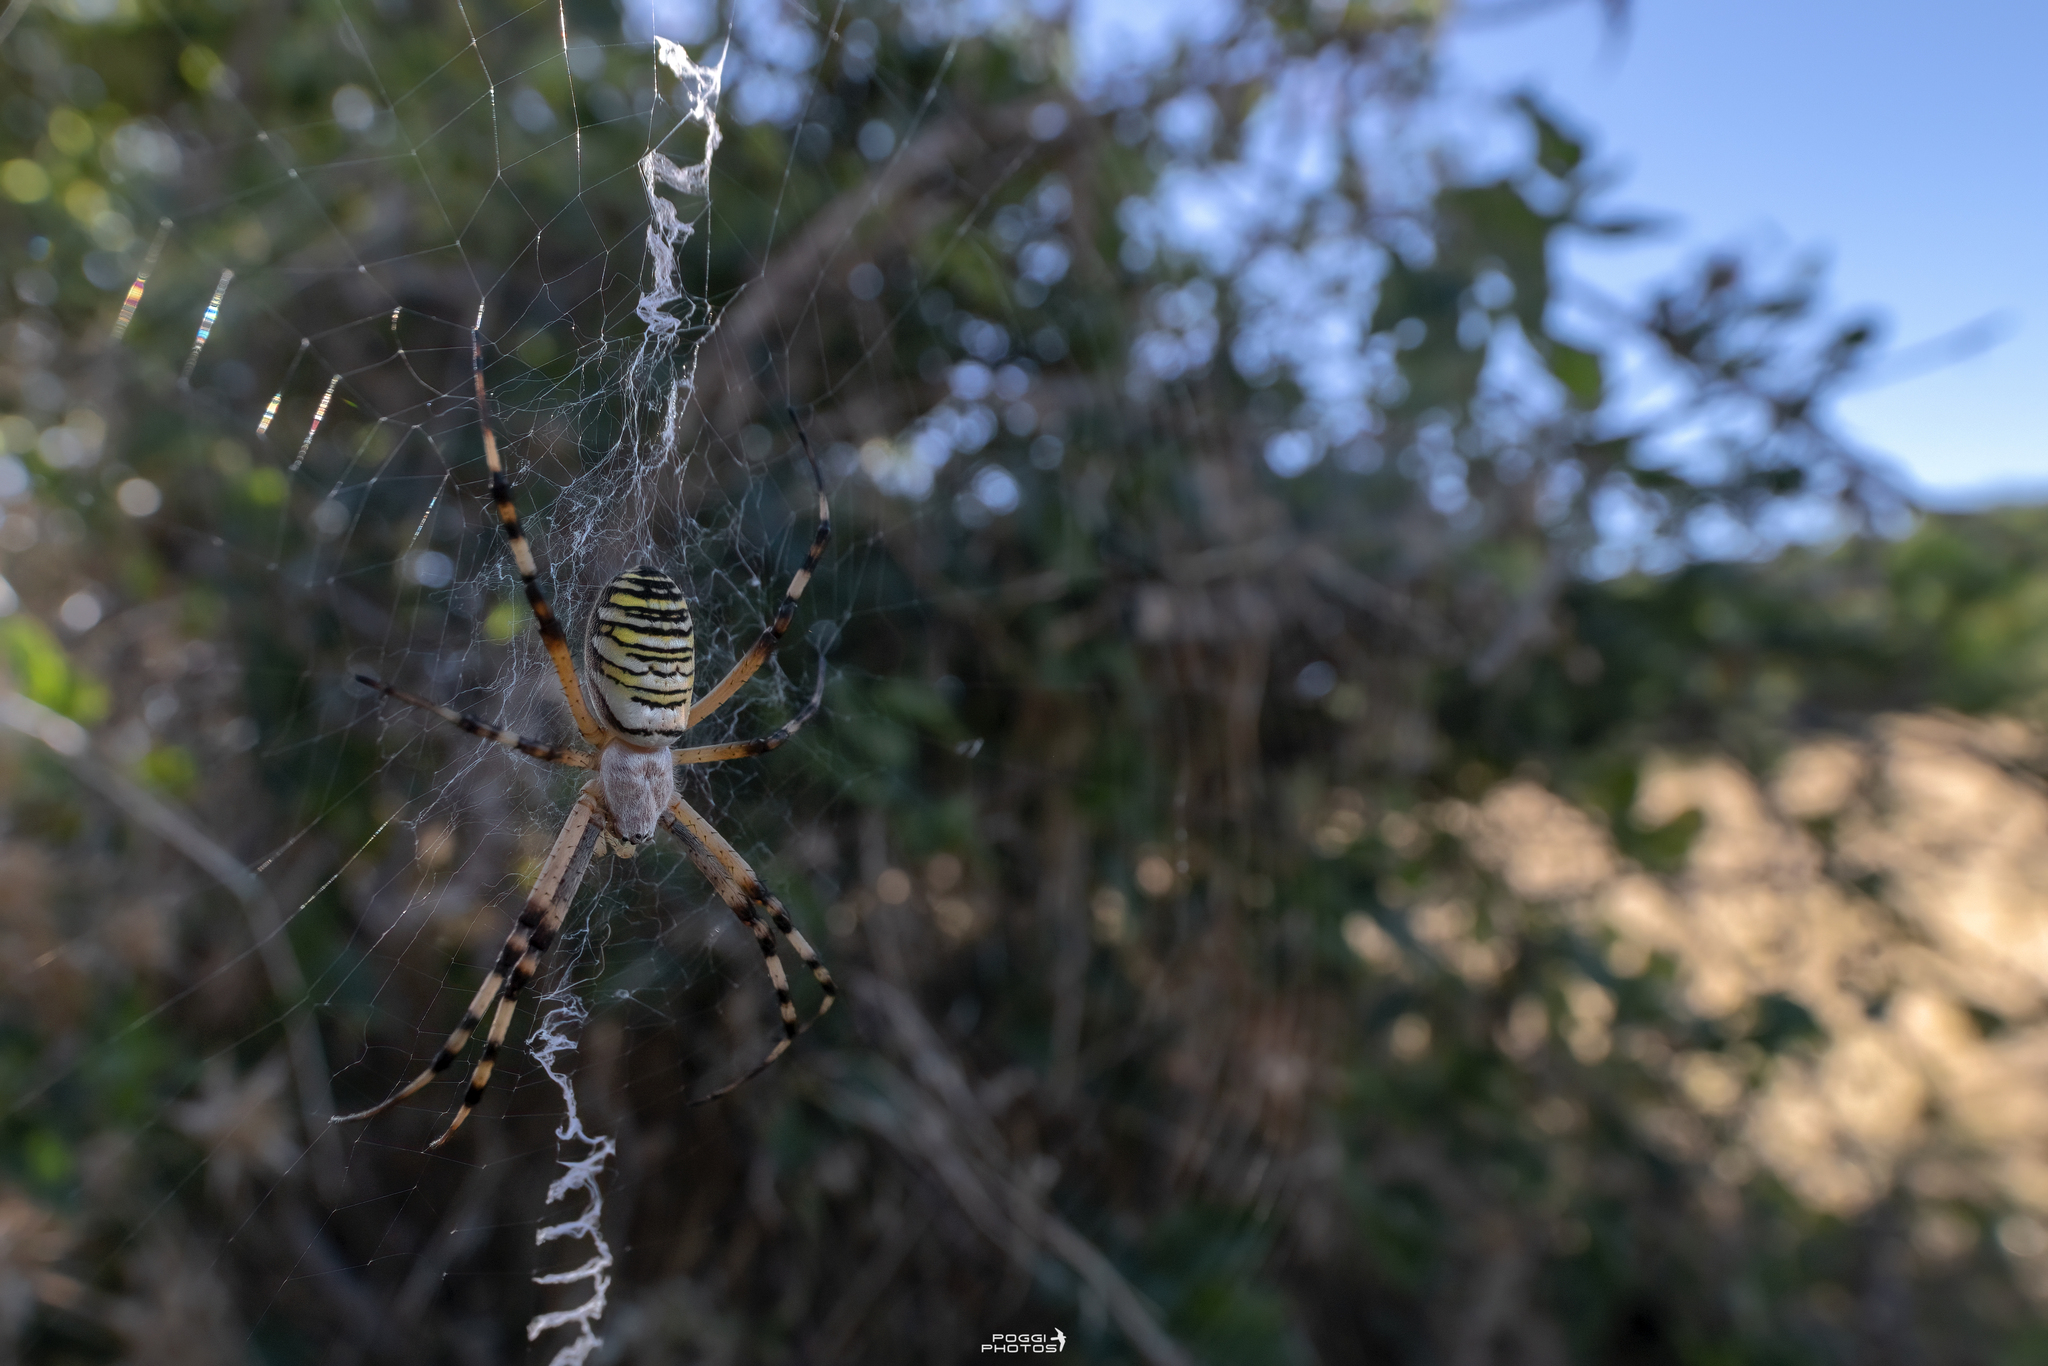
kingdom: Animalia
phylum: Arthropoda
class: Arachnida
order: Araneae
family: Araneidae
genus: Argiope
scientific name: Argiope bruennichi
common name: Wasp spider
